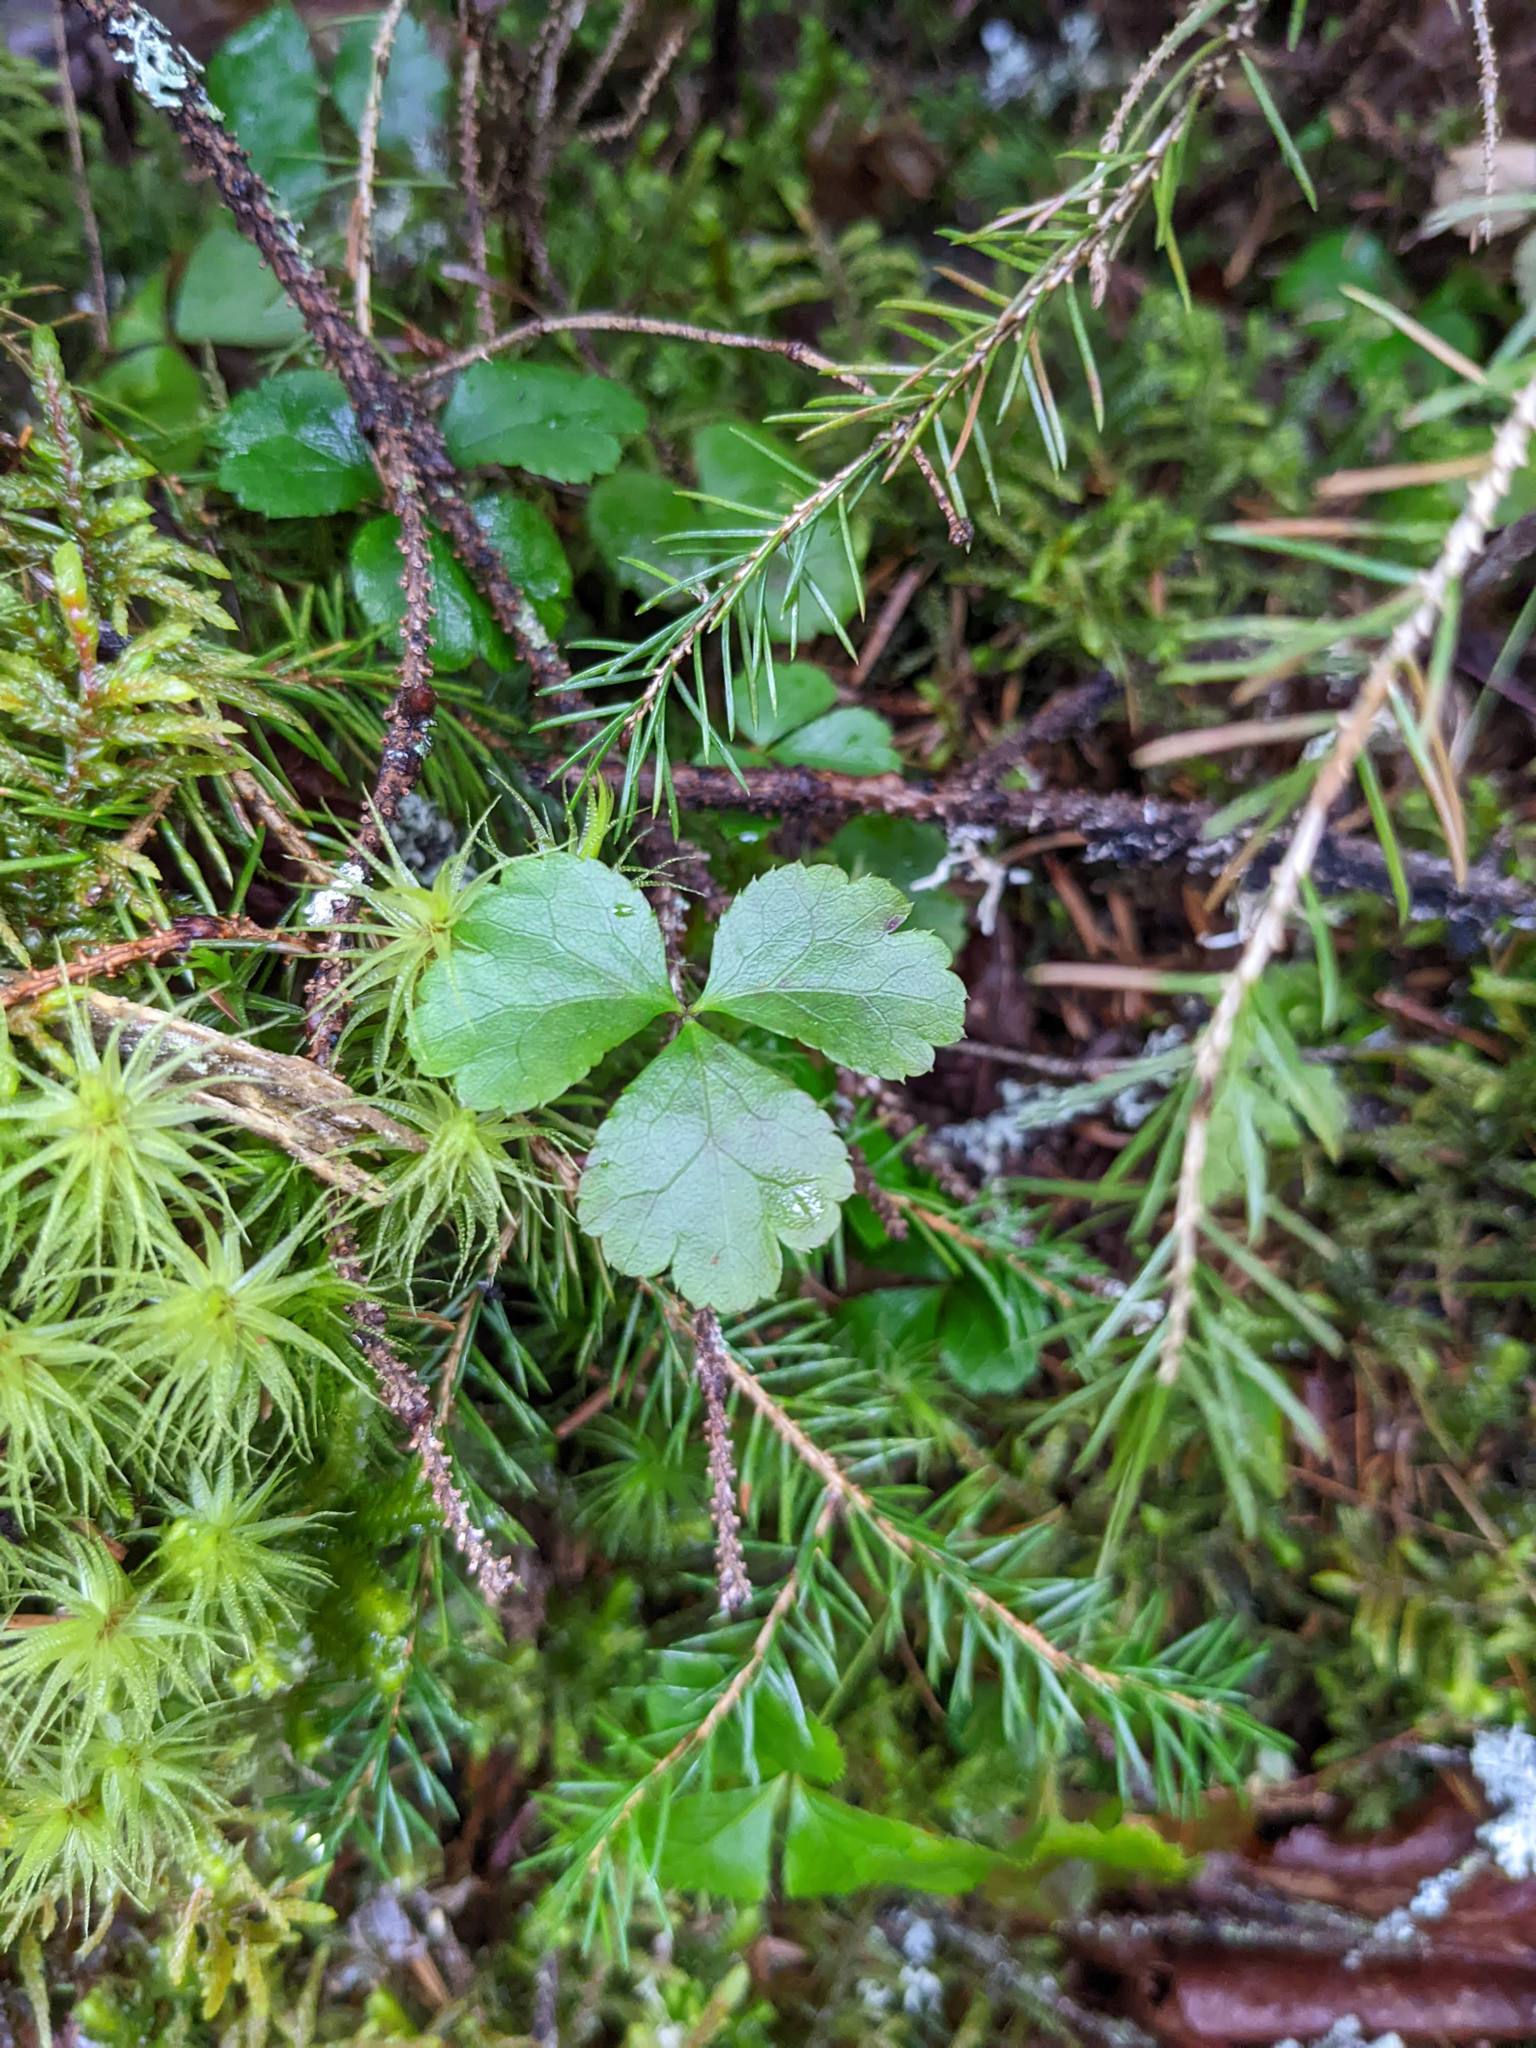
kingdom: Plantae
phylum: Tracheophyta
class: Magnoliopsida
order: Ranunculales
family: Ranunculaceae
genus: Coptis
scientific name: Coptis trifolia
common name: Canker-root
